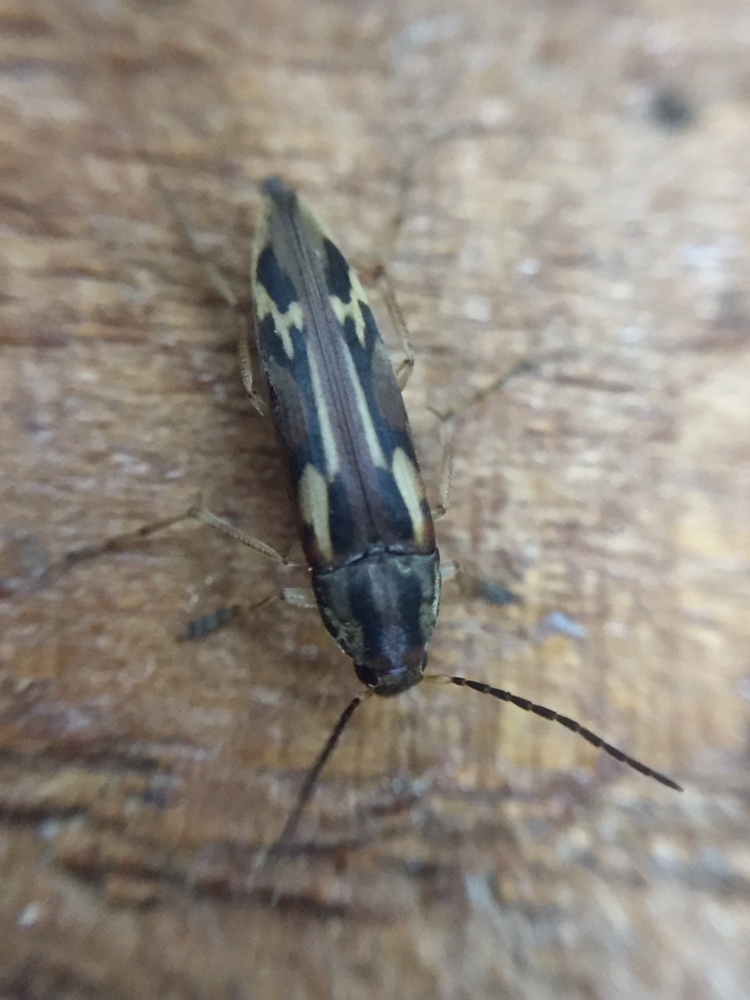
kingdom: Animalia
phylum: Arthropoda
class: Insecta
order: Neuroptera
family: Mesochrysopidae
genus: Allopterus
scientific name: Allopterus
